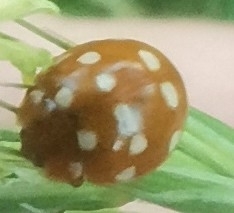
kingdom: Animalia
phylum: Arthropoda
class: Insecta
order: Coleoptera
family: Coccinellidae
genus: Calvia
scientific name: Calvia quatuordecimguttata
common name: Cream-spot ladybird
